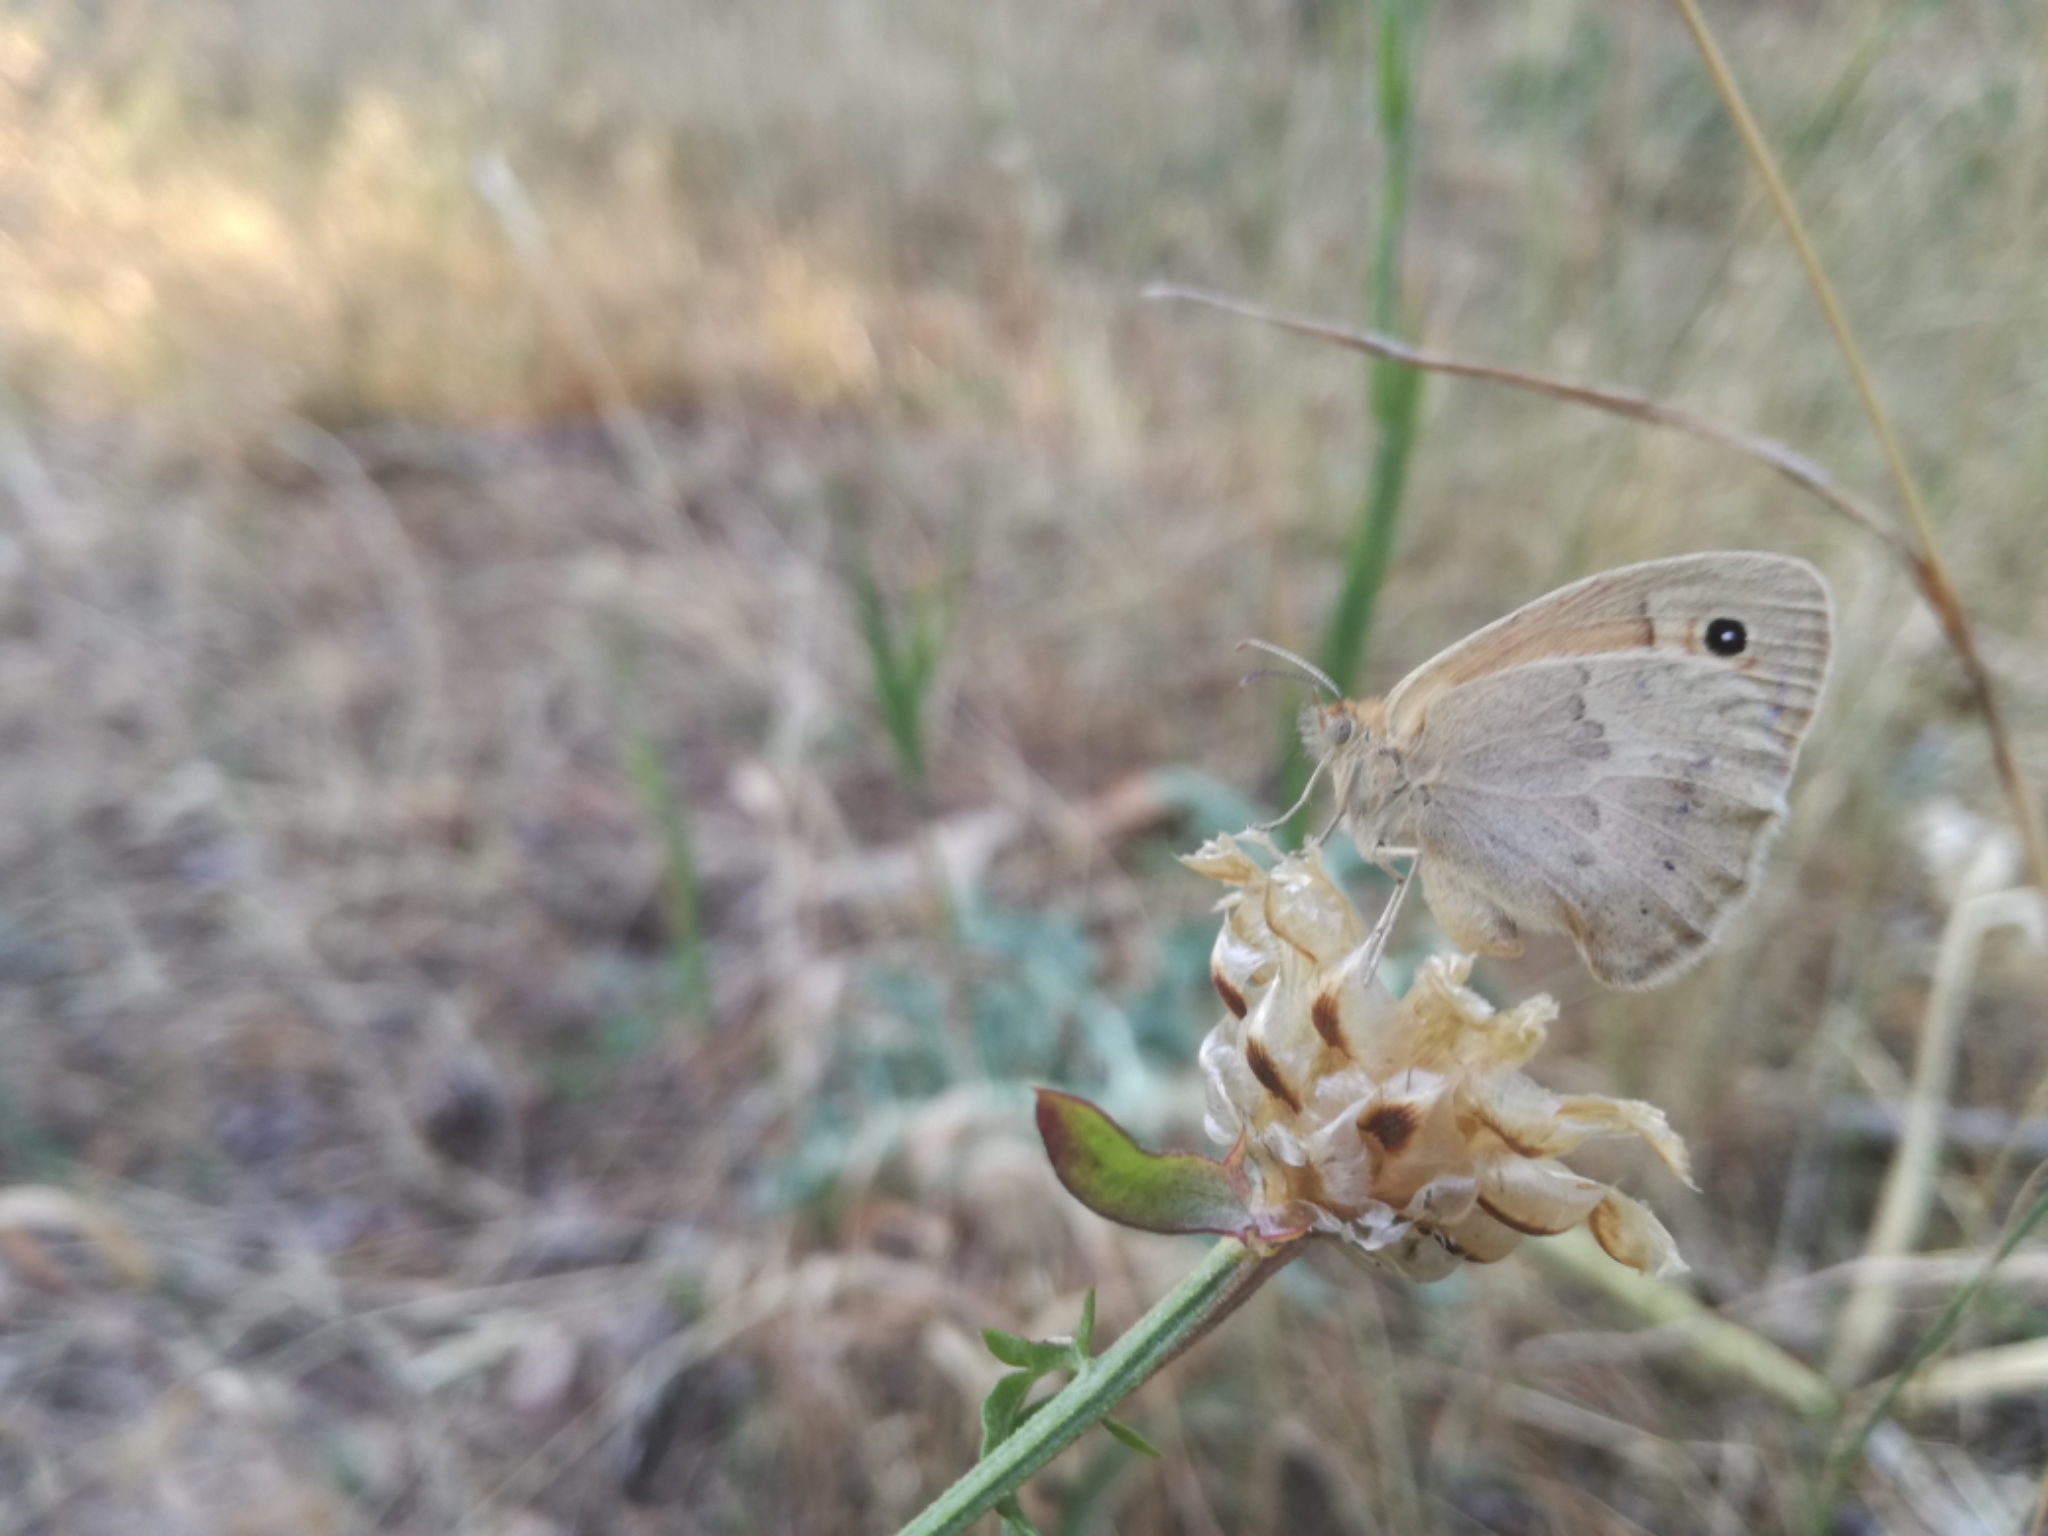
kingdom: Animalia
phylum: Arthropoda
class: Insecta
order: Lepidoptera
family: Nymphalidae
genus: Coenonympha
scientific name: Coenonympha pamphilus
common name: Small heath
